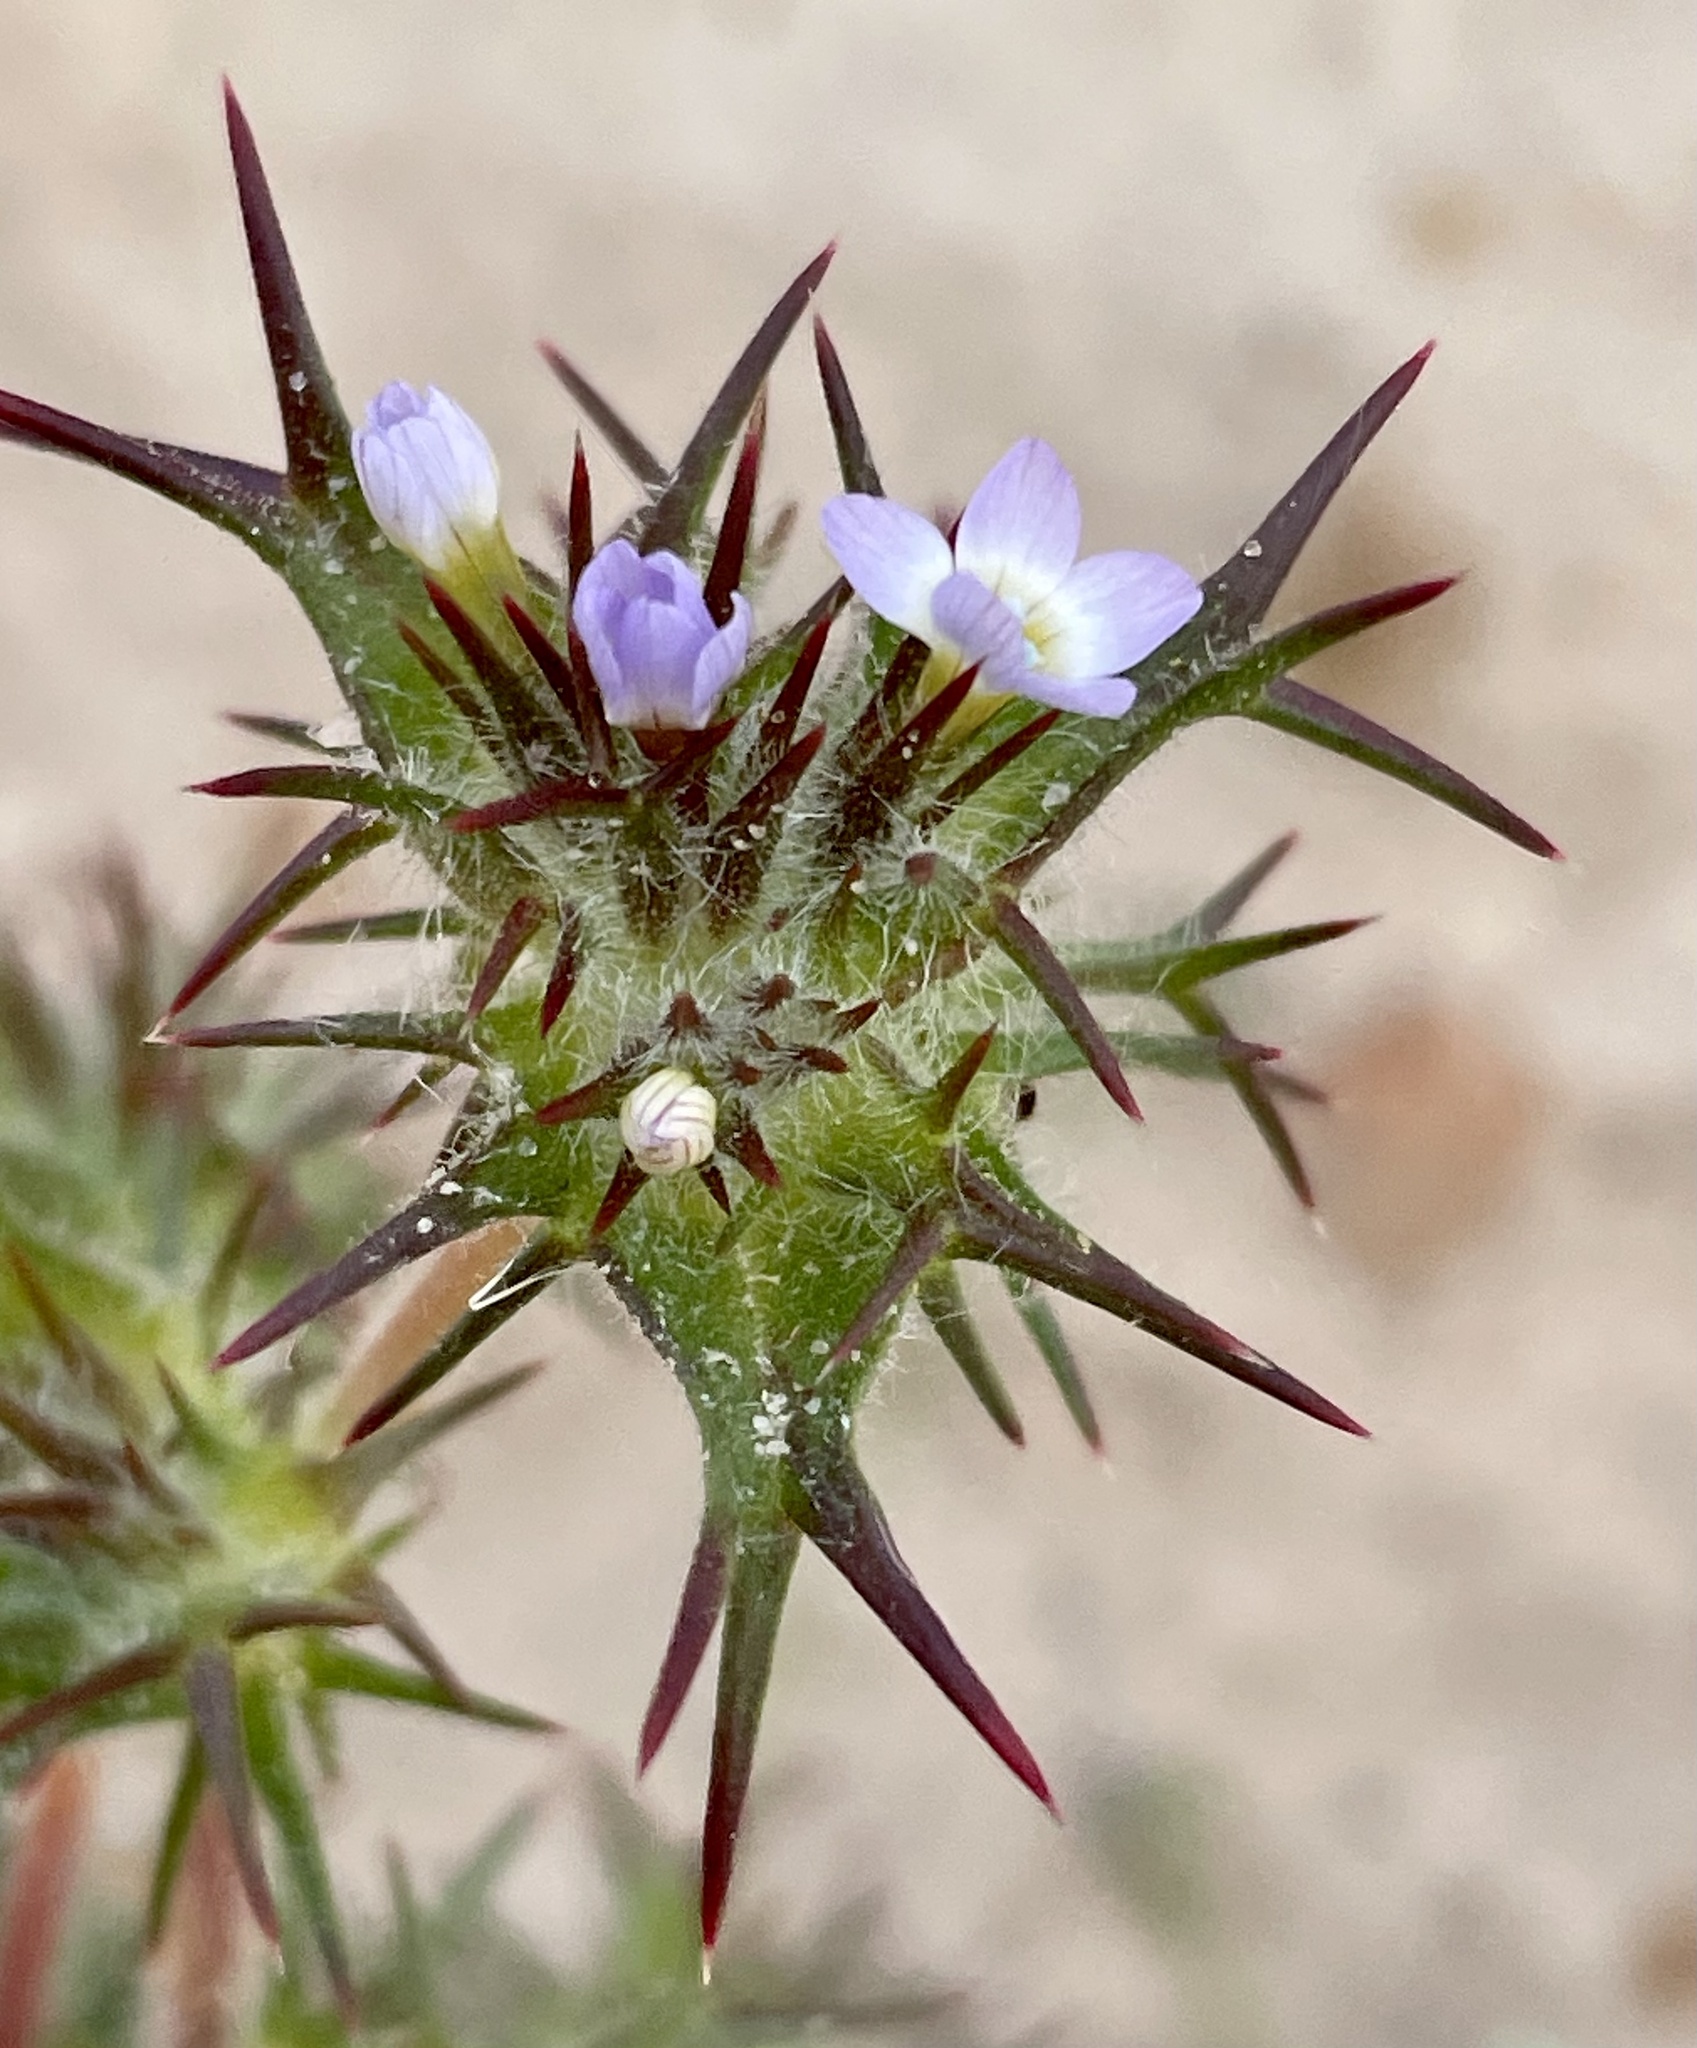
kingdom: Plantae
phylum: Tracheophyta
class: Magnoliopsida
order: Ericales
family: Polemoniaceae
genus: Navarretia
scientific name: Navarretia hamata
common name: Hooked navarretia
